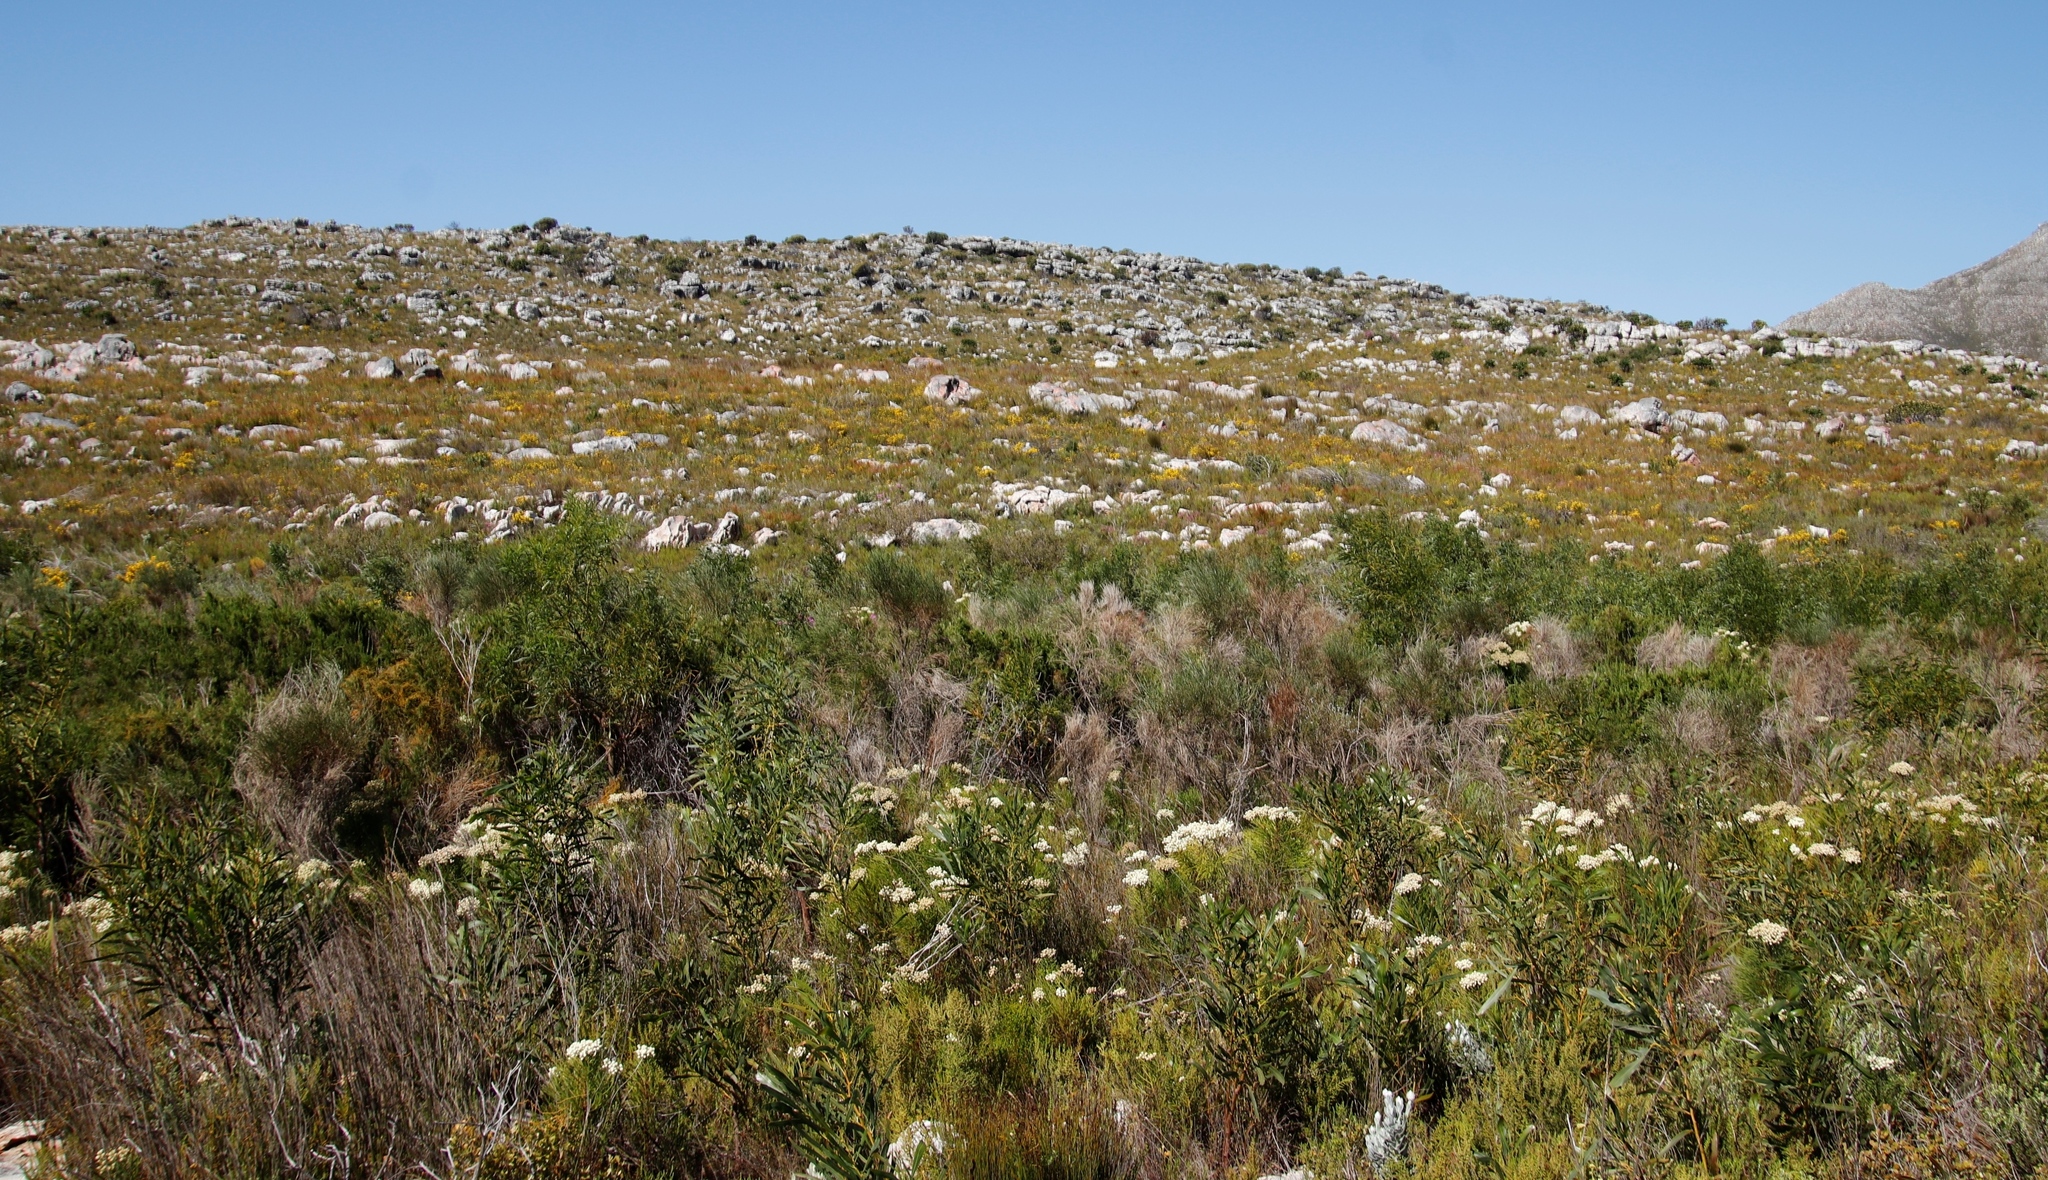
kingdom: Plantae
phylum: Tracheophyta
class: Magnoliopsida
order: Fabales
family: Fabaceae
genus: Acacia
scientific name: Acacia saligna
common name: Orange wattle
